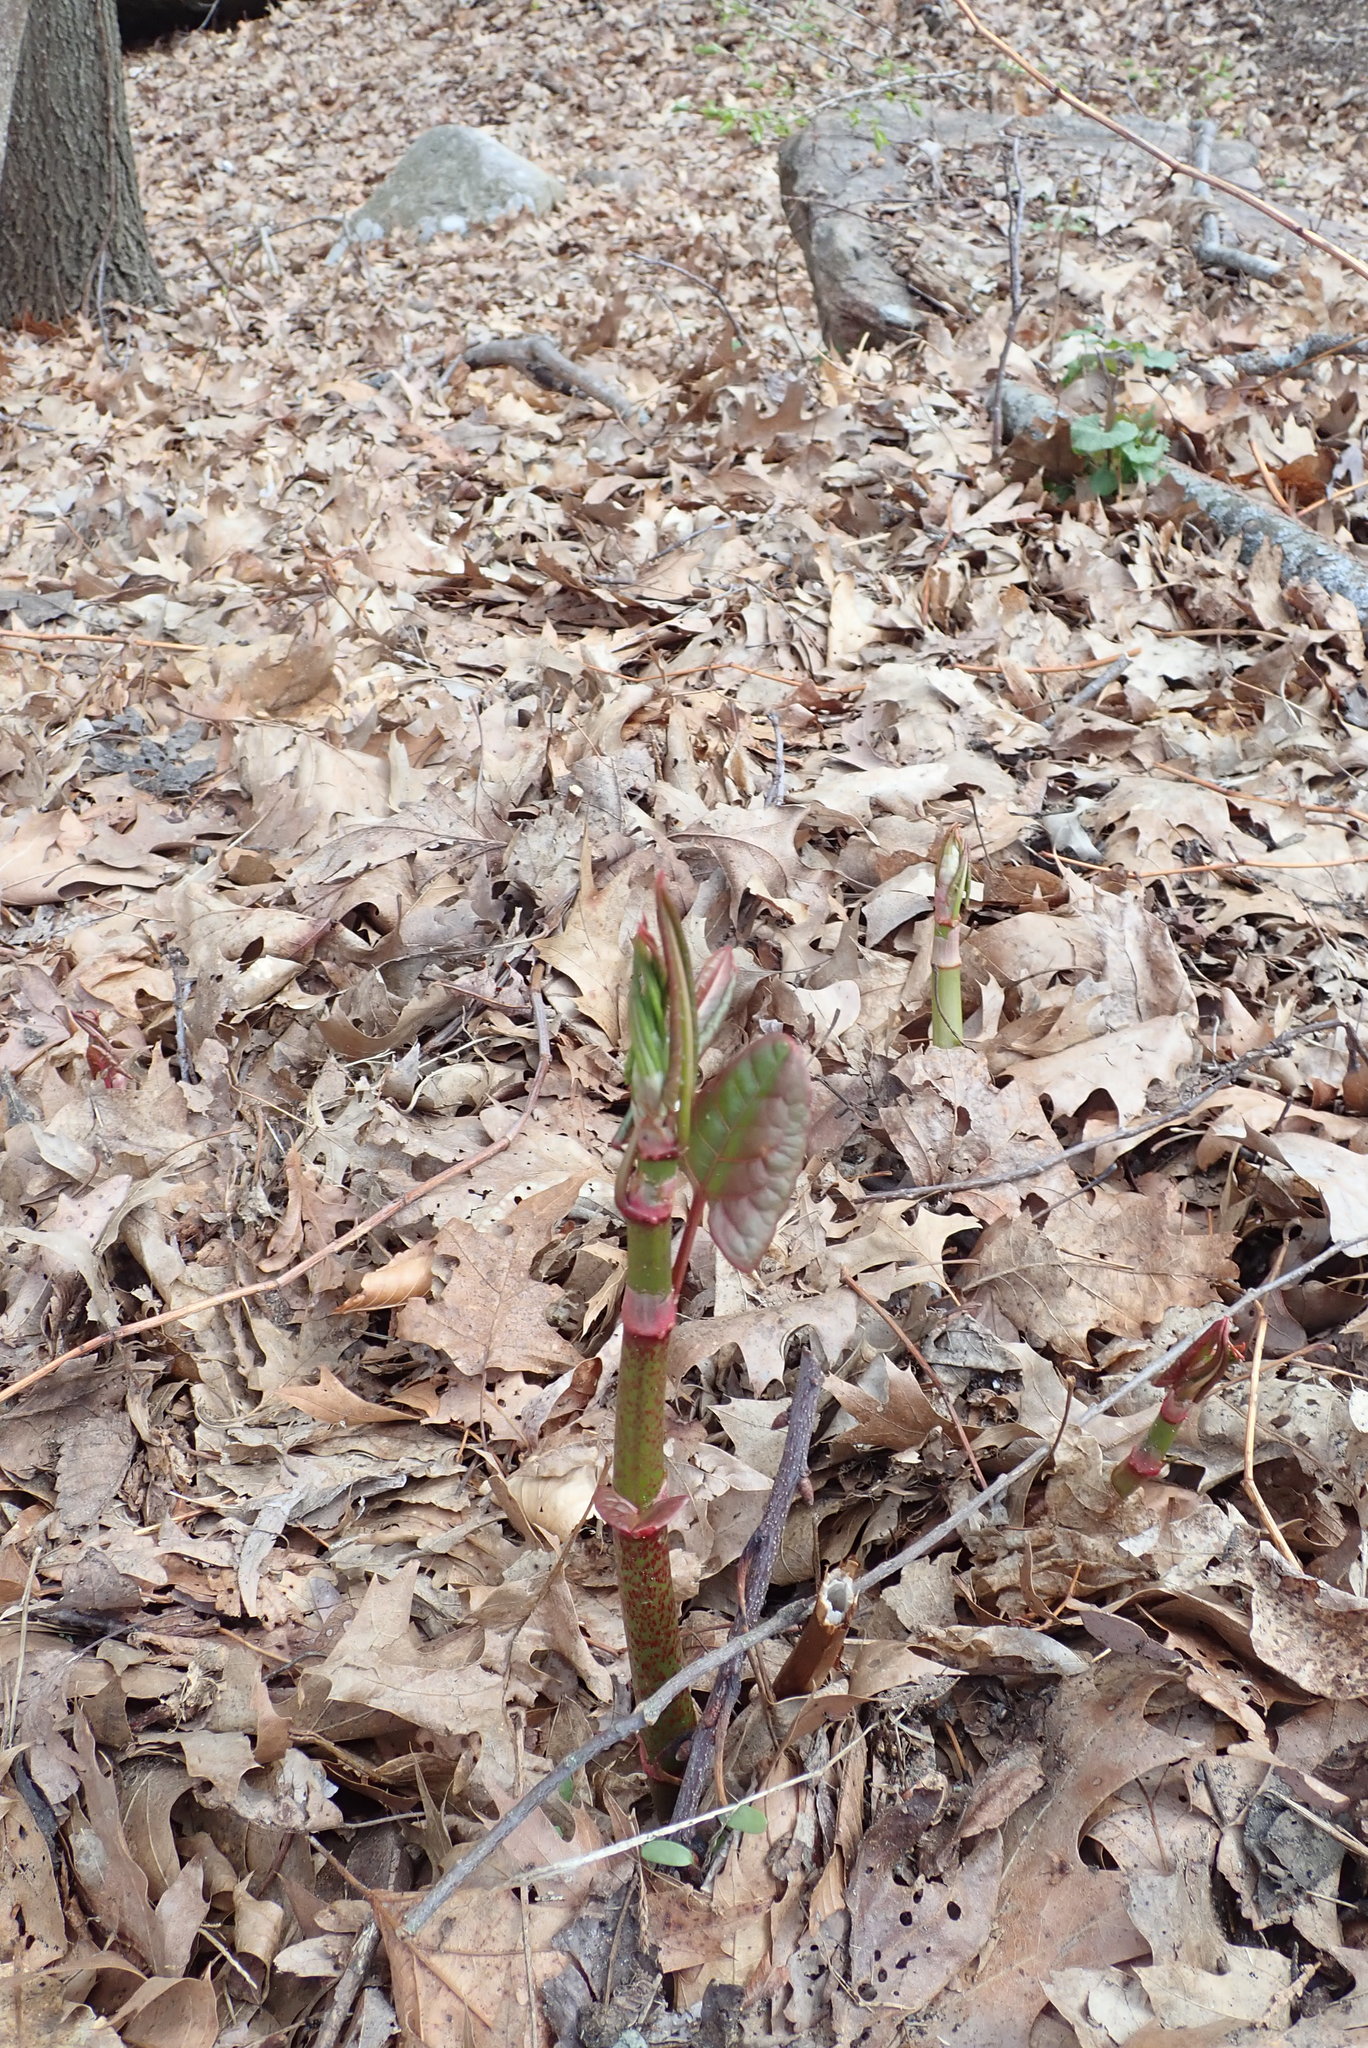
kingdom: Plantae
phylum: Tracheophyta
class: Magnoliopsida
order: Caryophyllales
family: Polygonaceae
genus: Reynoutria
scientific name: Reynoutria japonica
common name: Japanese knotweed
